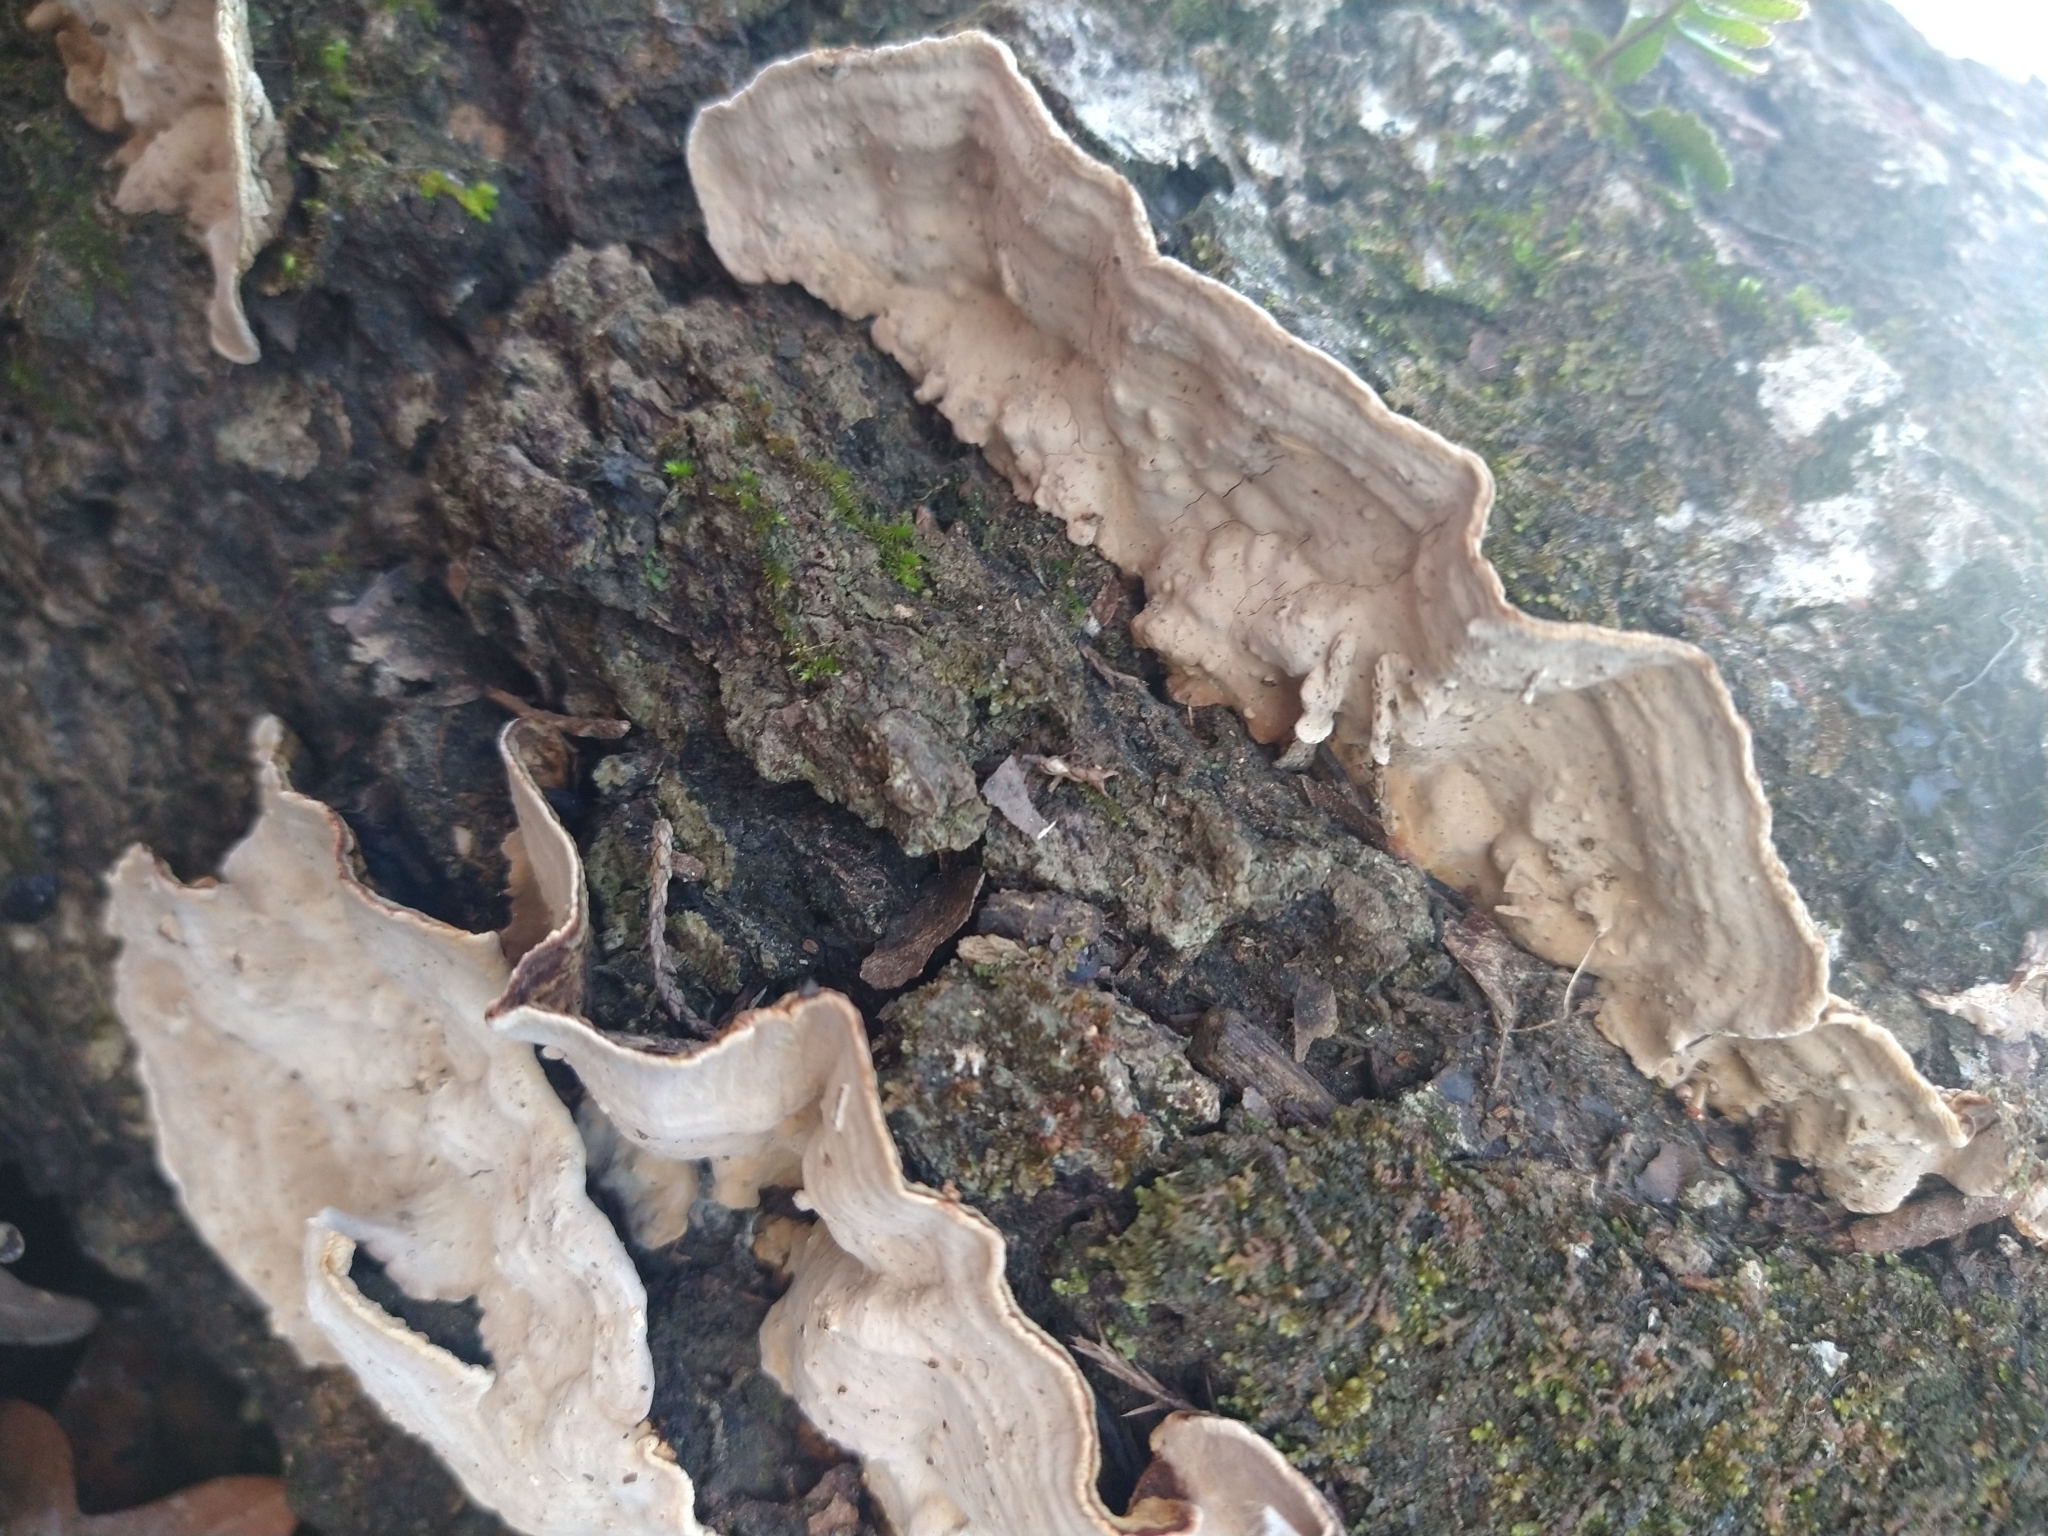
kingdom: Fungi
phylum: Basidiomycota
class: Agaricomycetes
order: Polyporales
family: Polyporaceae
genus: Trametes
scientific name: Trametes versicolor
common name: Turkeytail
